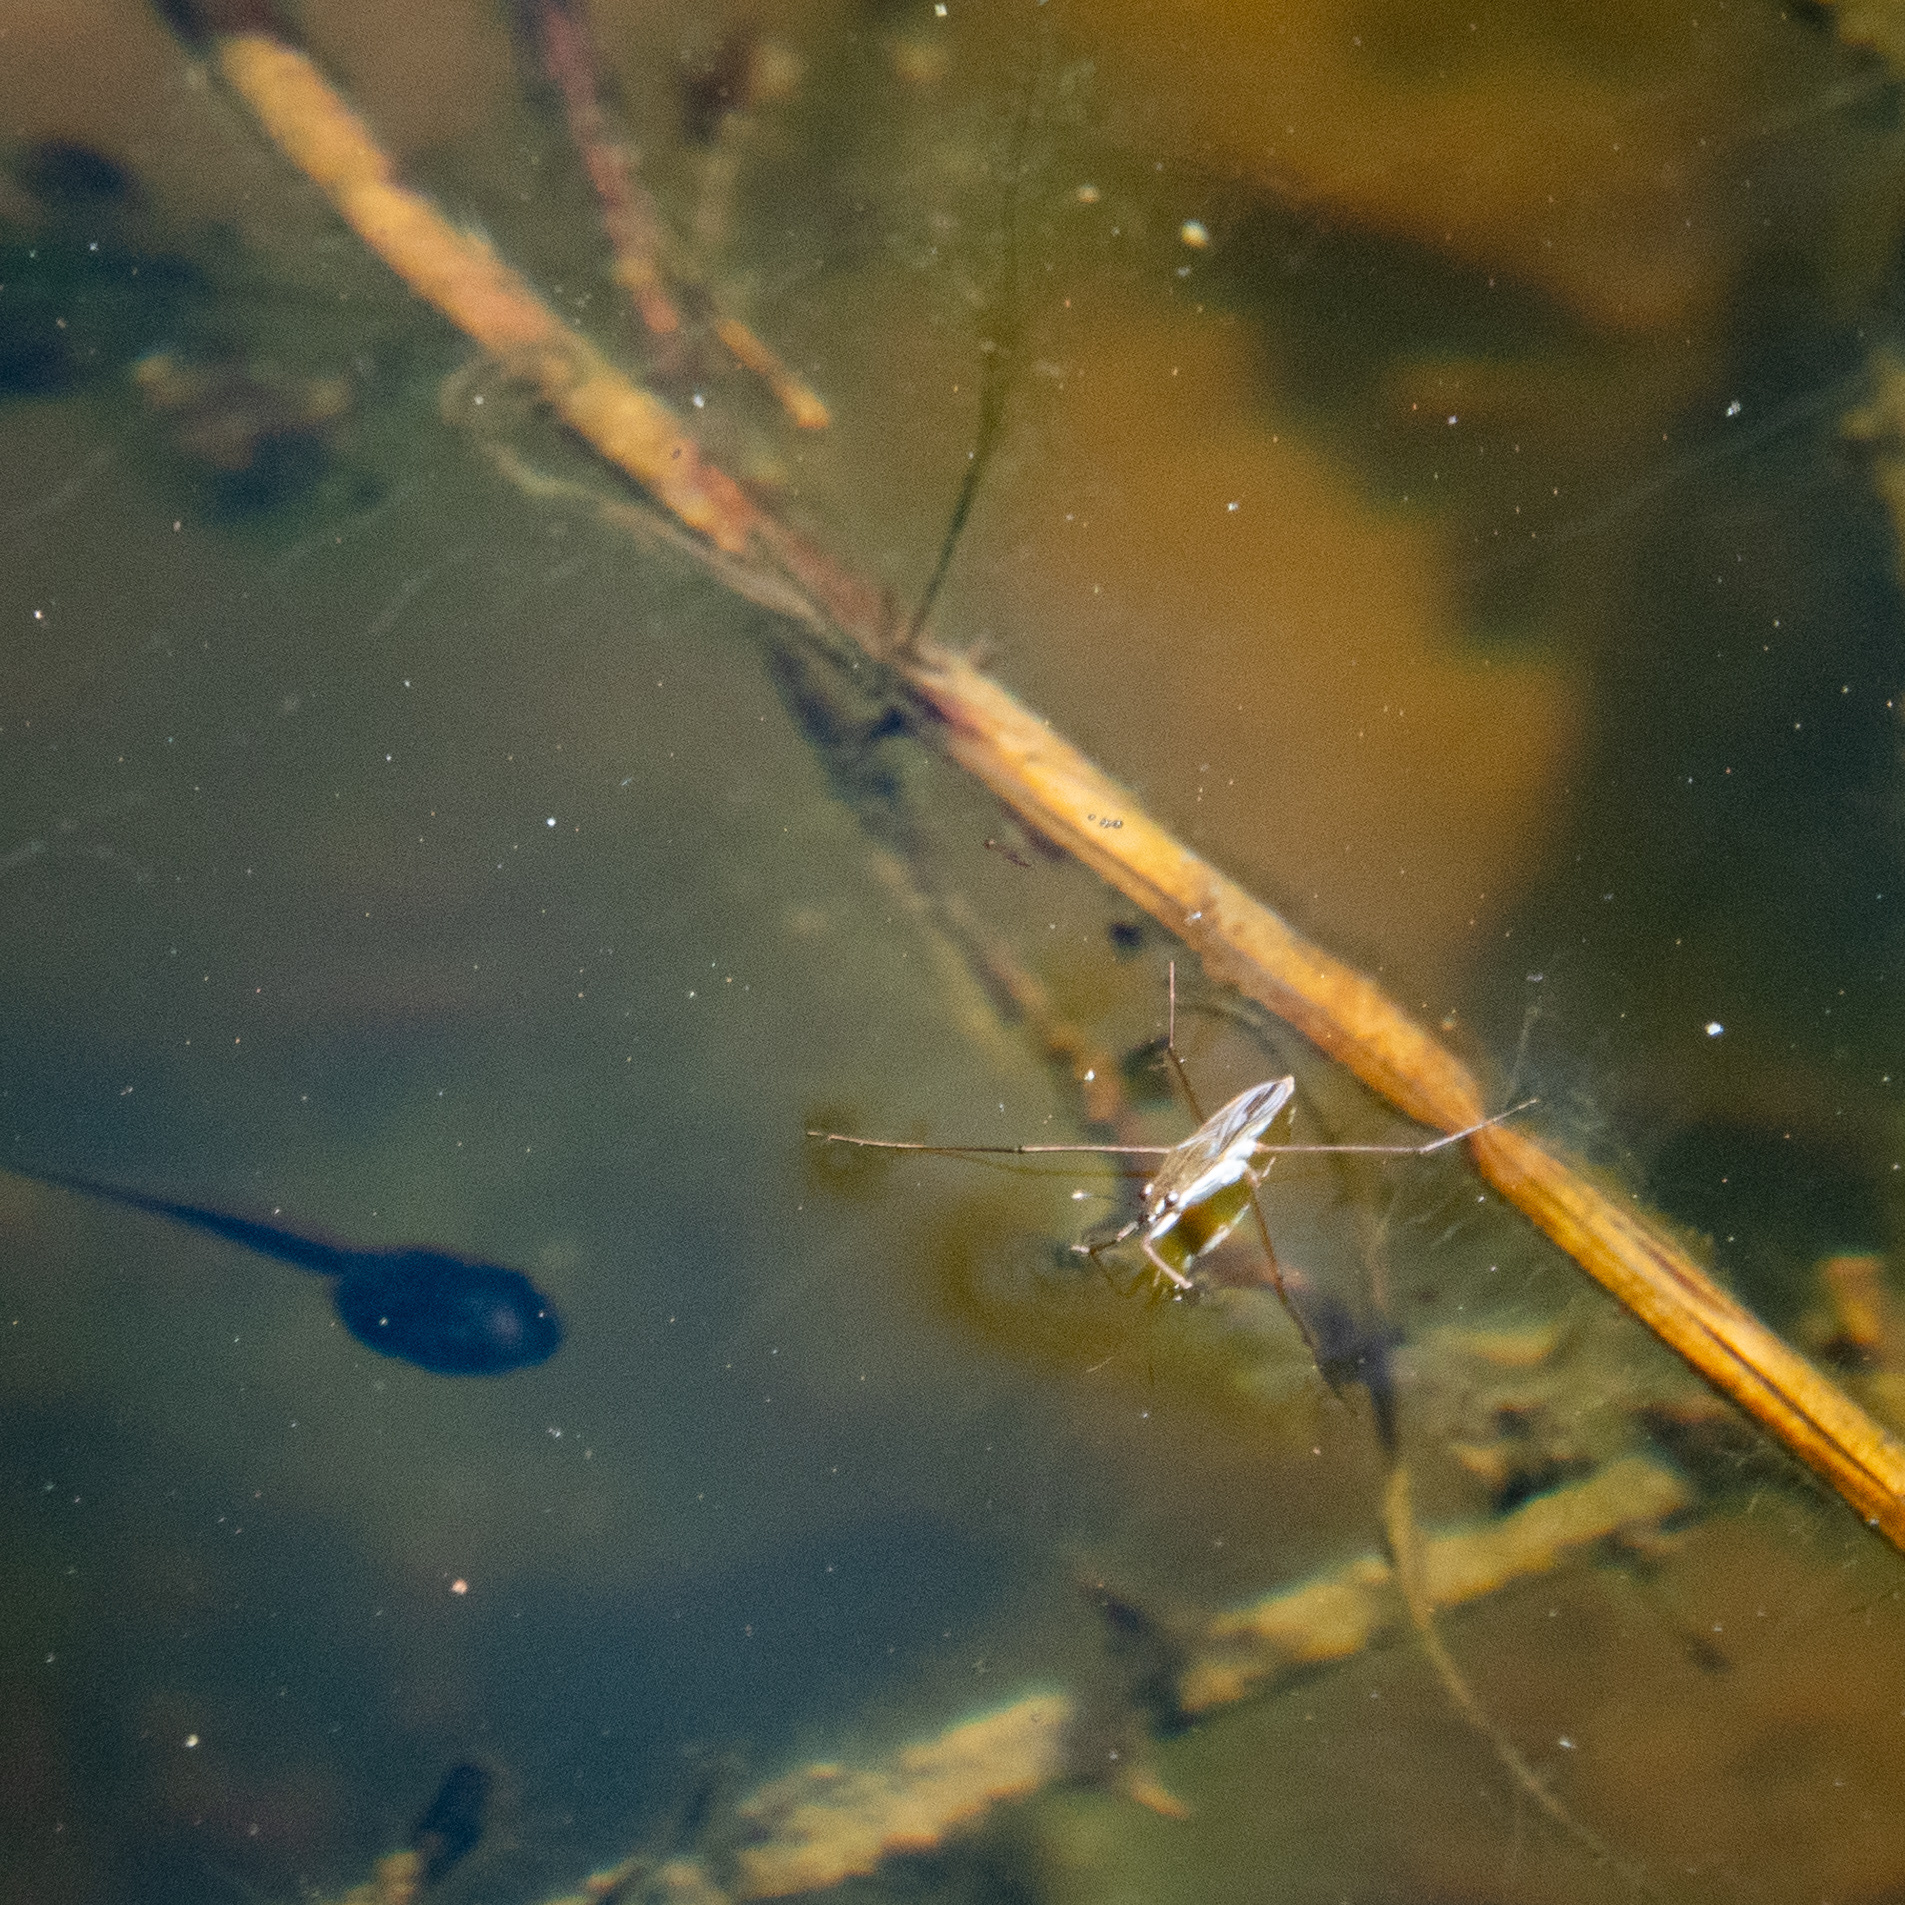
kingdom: Animalia
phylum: Arthropoda
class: Insecta
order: Hemiptera
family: Gerridae
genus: Gerris
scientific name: Gerris
